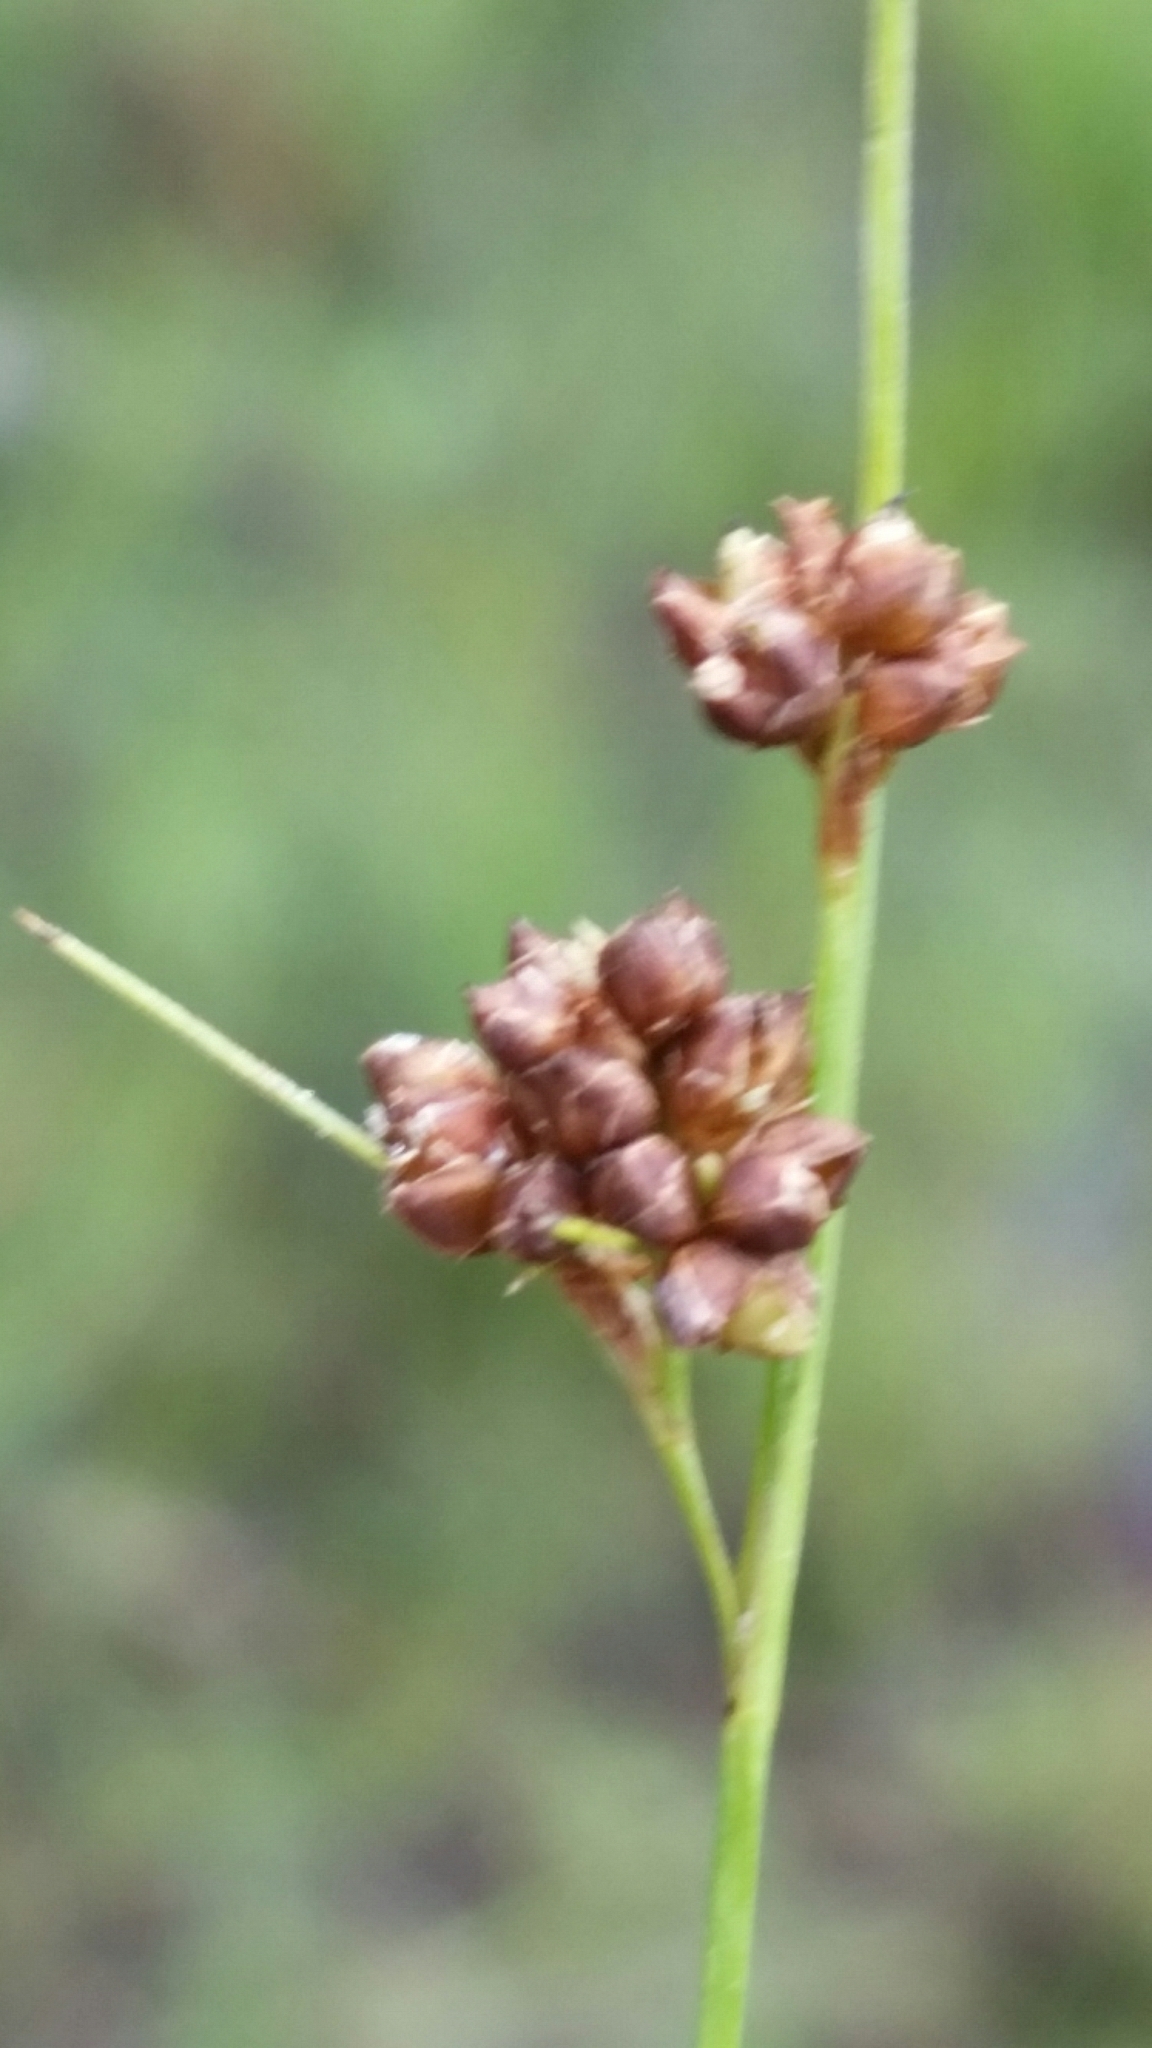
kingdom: Plantae
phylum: Tracheophyta
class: Liliopsida
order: Poales
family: Cyperaceae
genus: Rhynchospora
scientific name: Rhynchospora globularis
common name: Globe beaksedge
